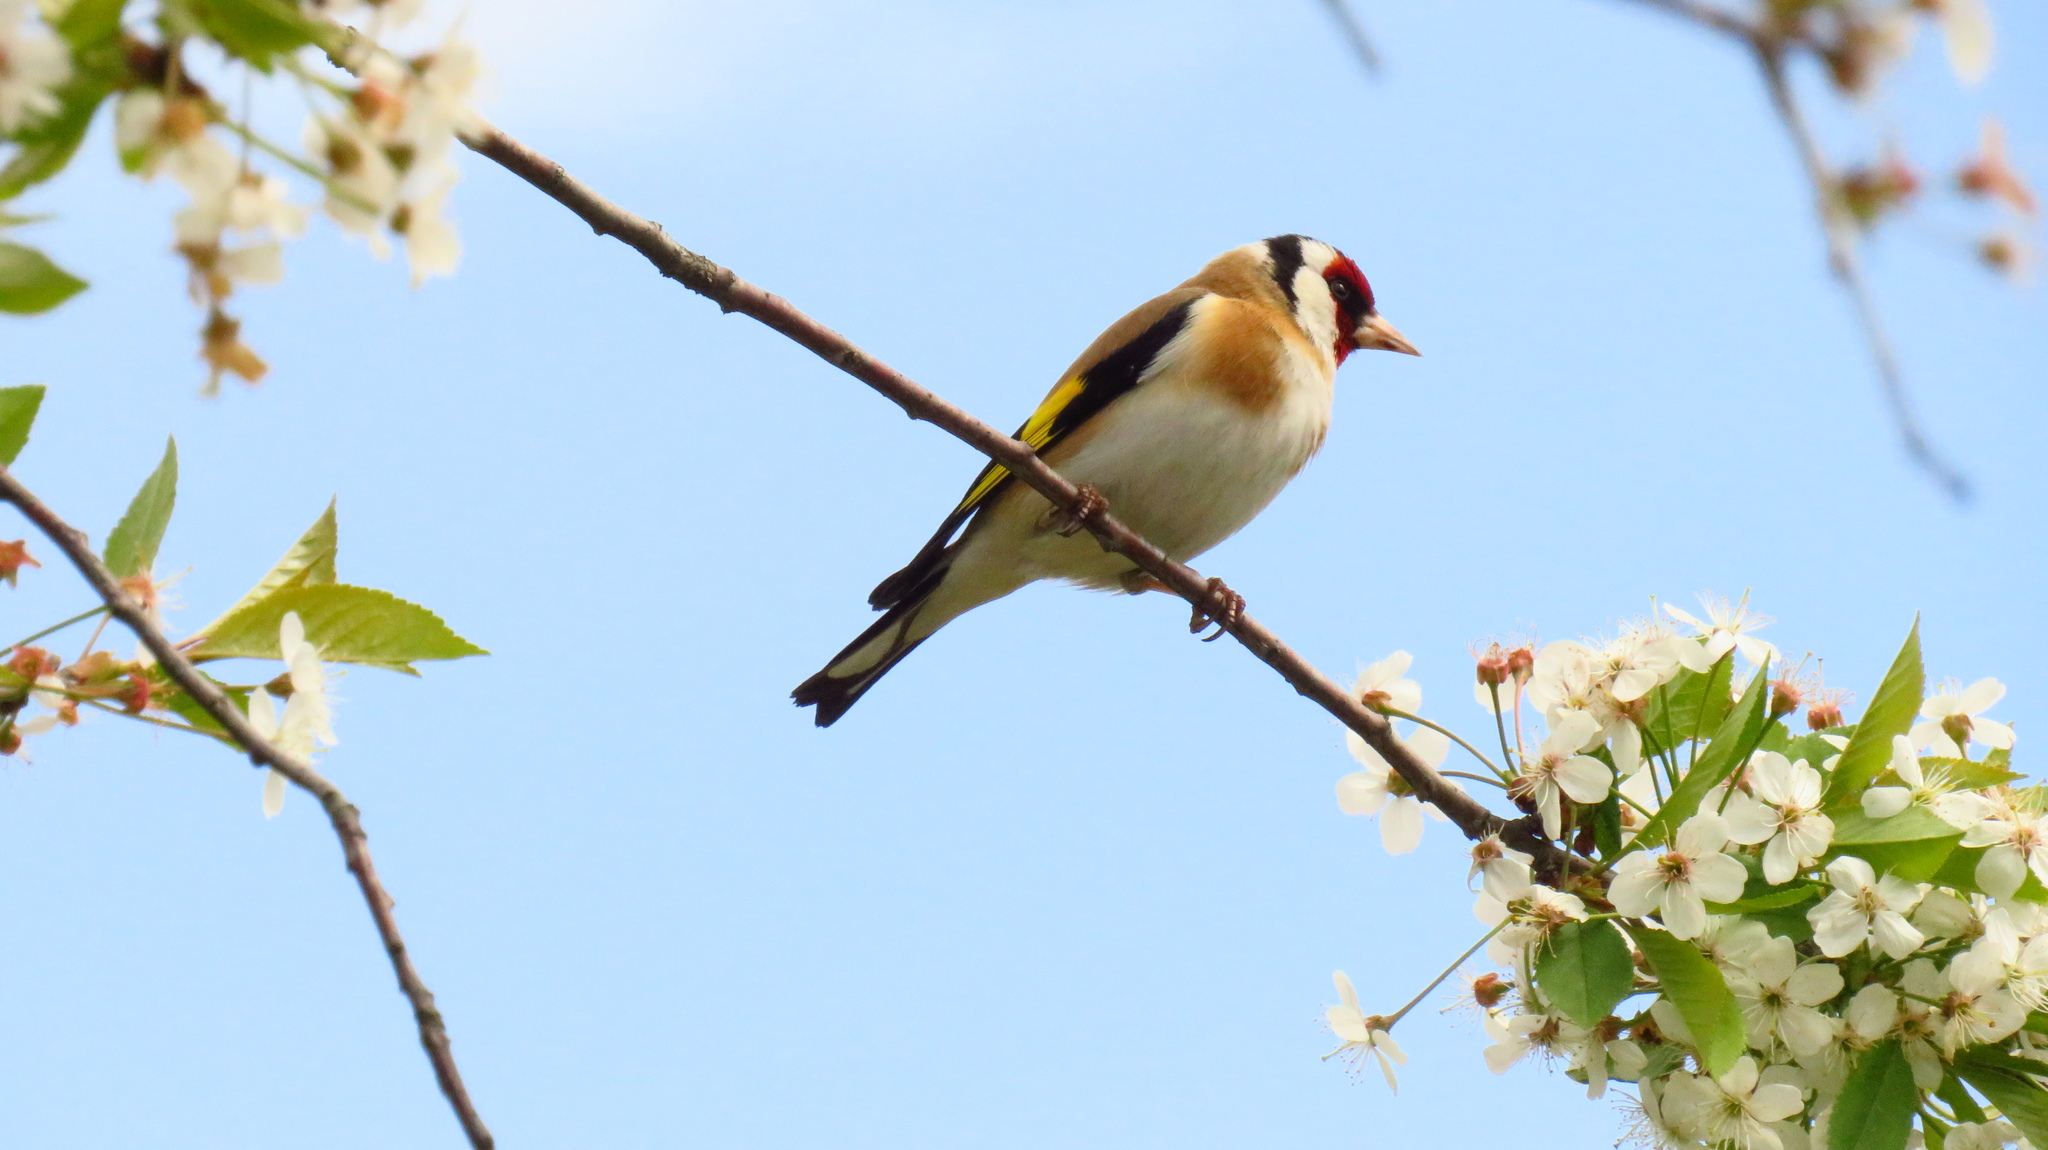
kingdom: Animalia
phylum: Chordata
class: Aves
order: Passeriformes
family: Fringillidae
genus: Carduelis
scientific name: Carduelis carduelis
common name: European goldfinch
